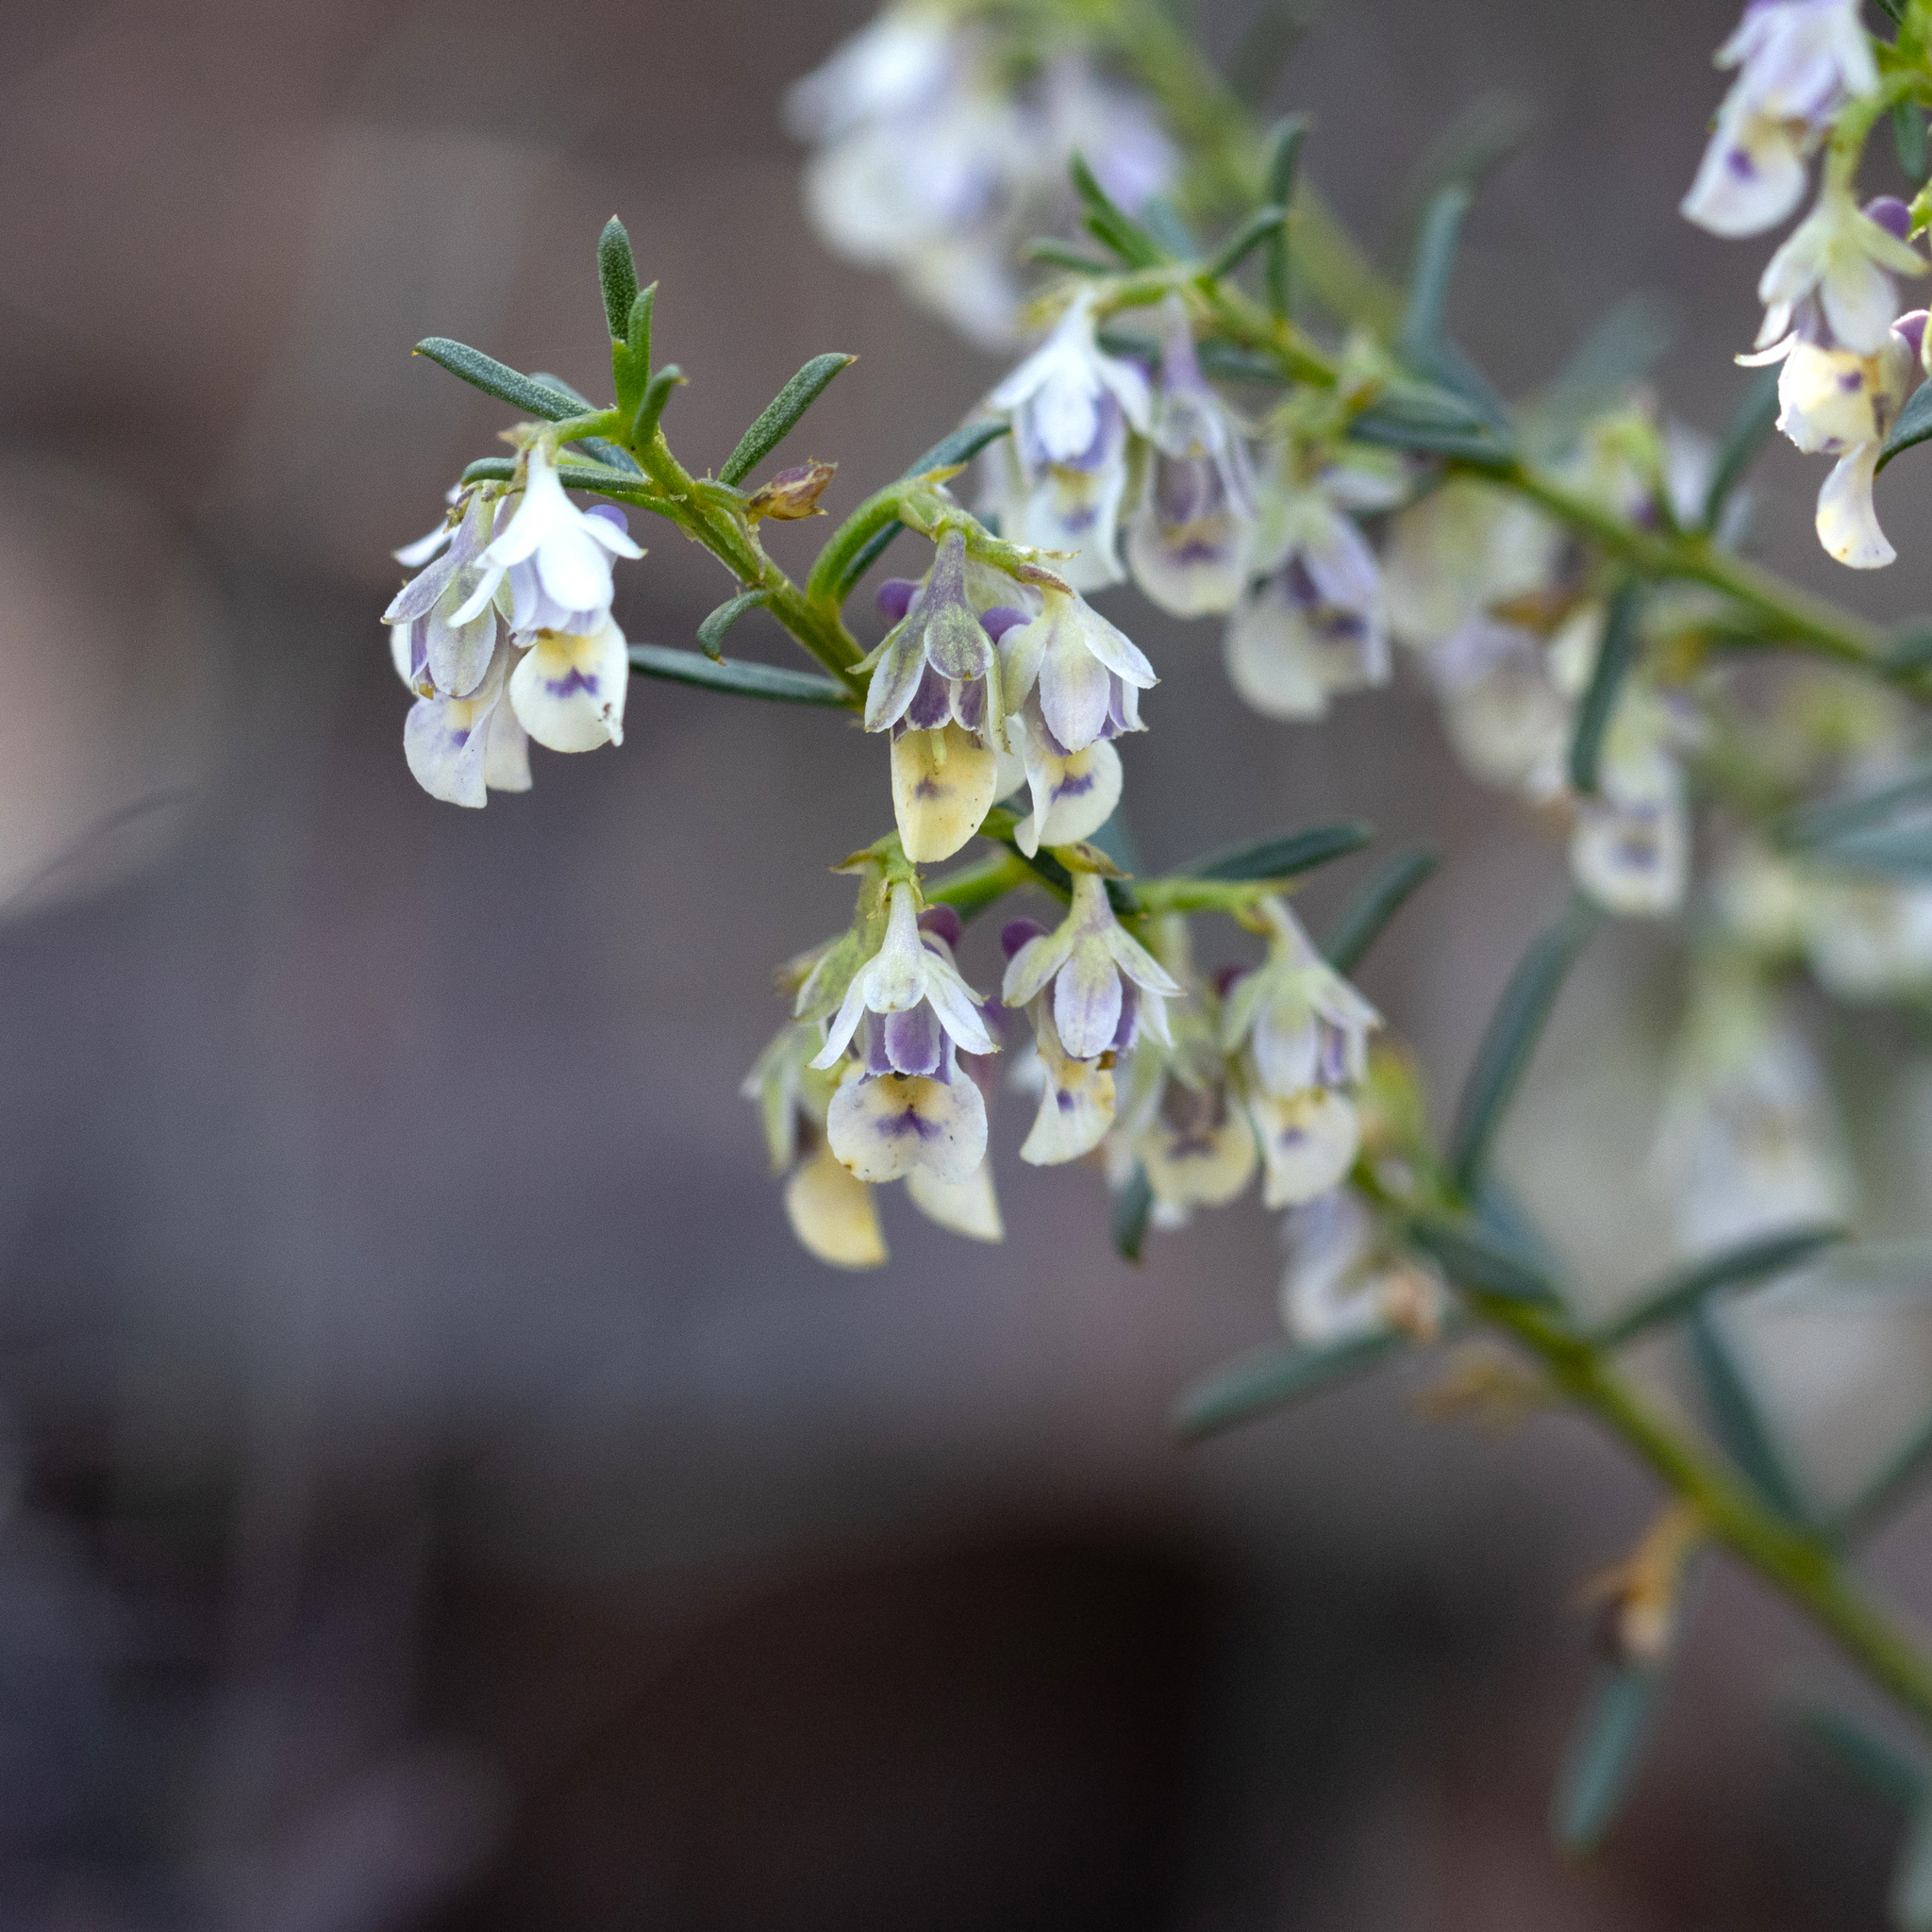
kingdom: Plantae
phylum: Tracheophyta
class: Magnoliopsida
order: Malpighiales
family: Violaceae
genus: Pigea
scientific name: Pigea floribunda
